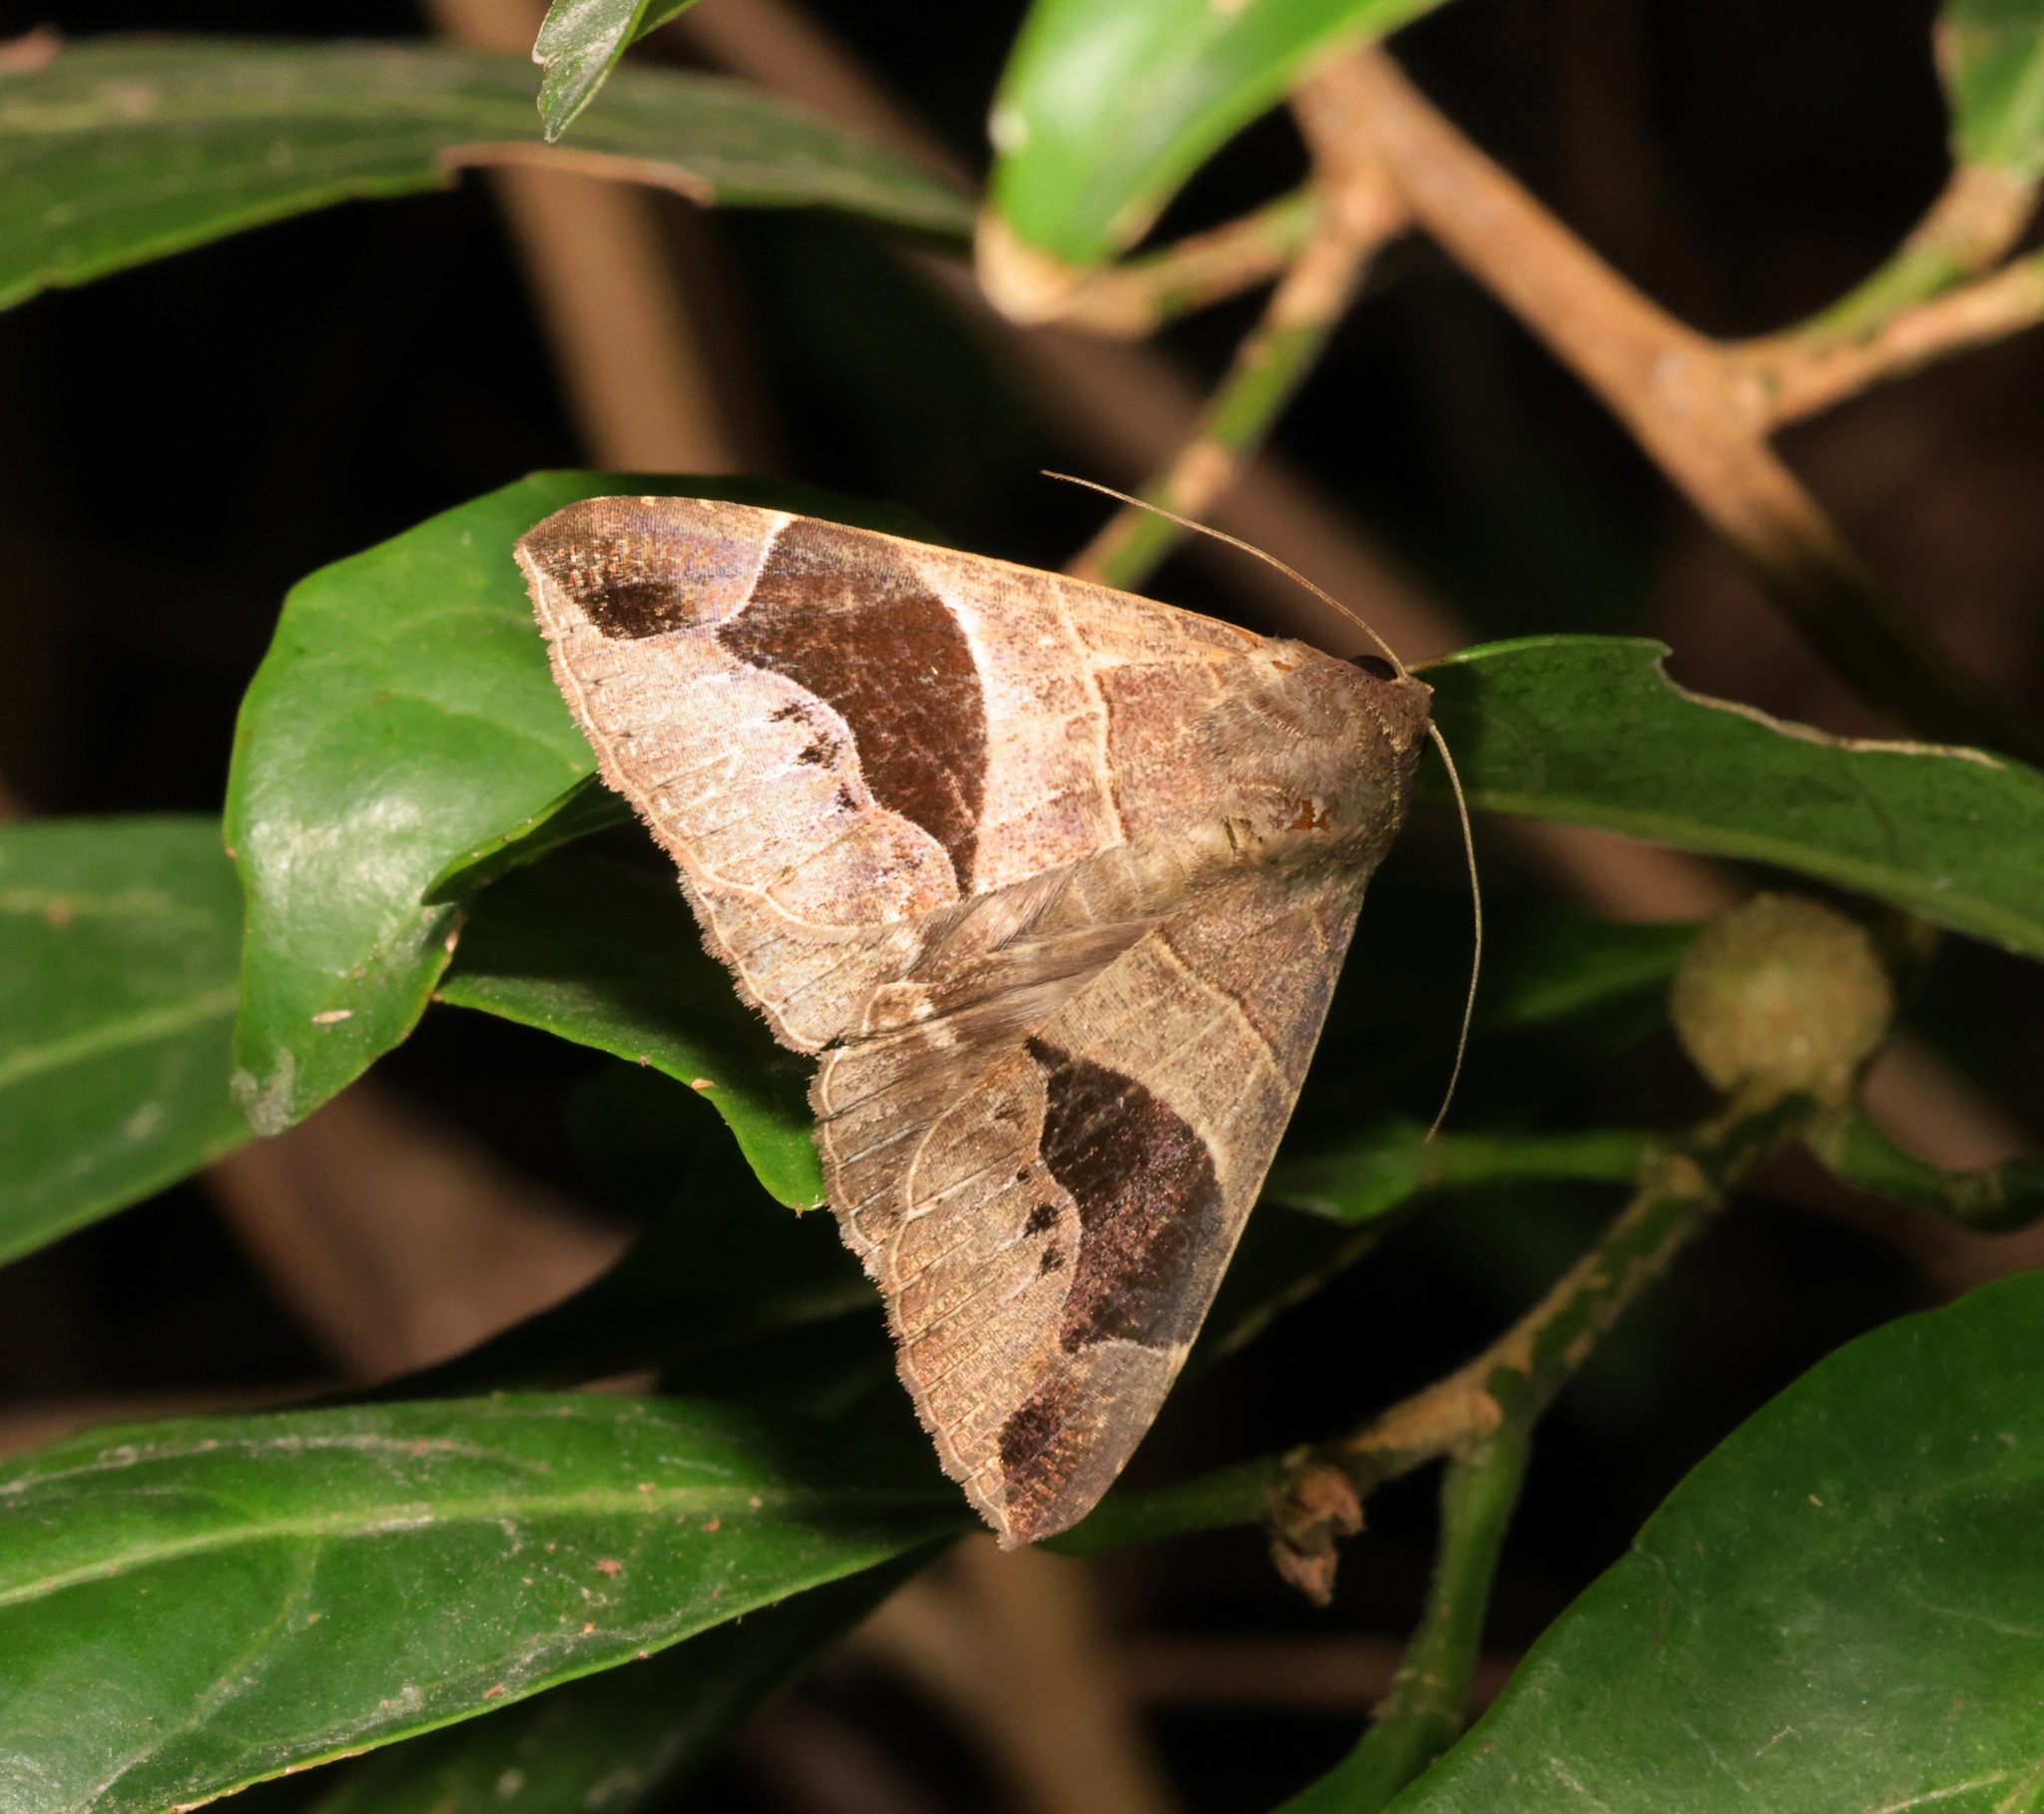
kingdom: Animalia
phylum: Arthropoda
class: Insecta
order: Lepidoptera
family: Erebidae
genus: Bastilla
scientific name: Bastilla joviana
